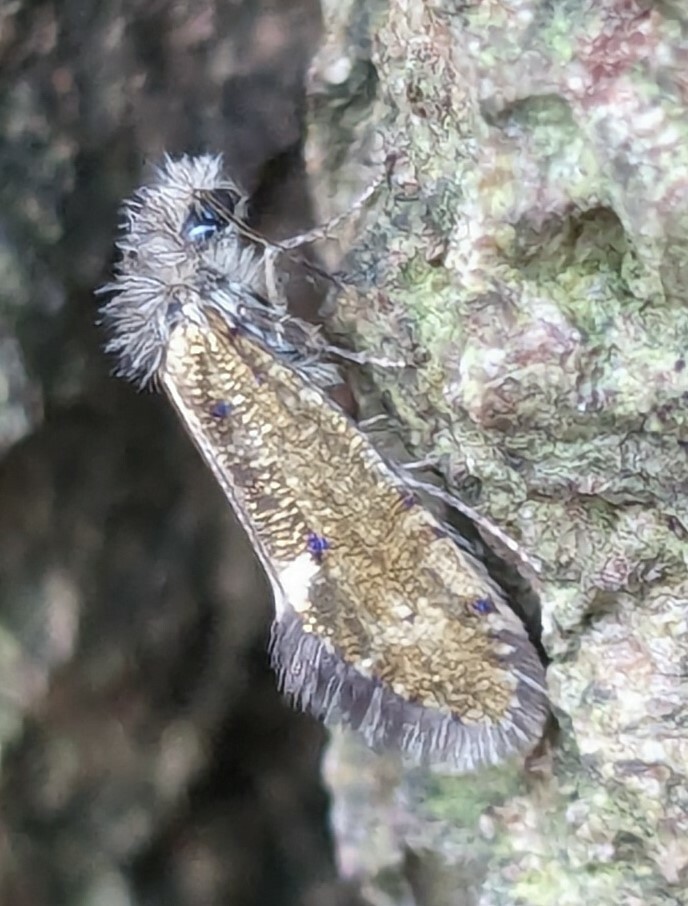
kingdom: Animalia
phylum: Arthropoda
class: Insecta
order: Lepidoptera
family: Eriocraniidae
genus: Dyseriocrania
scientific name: Dyseriocrania subpurpurella
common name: Common oak purple
